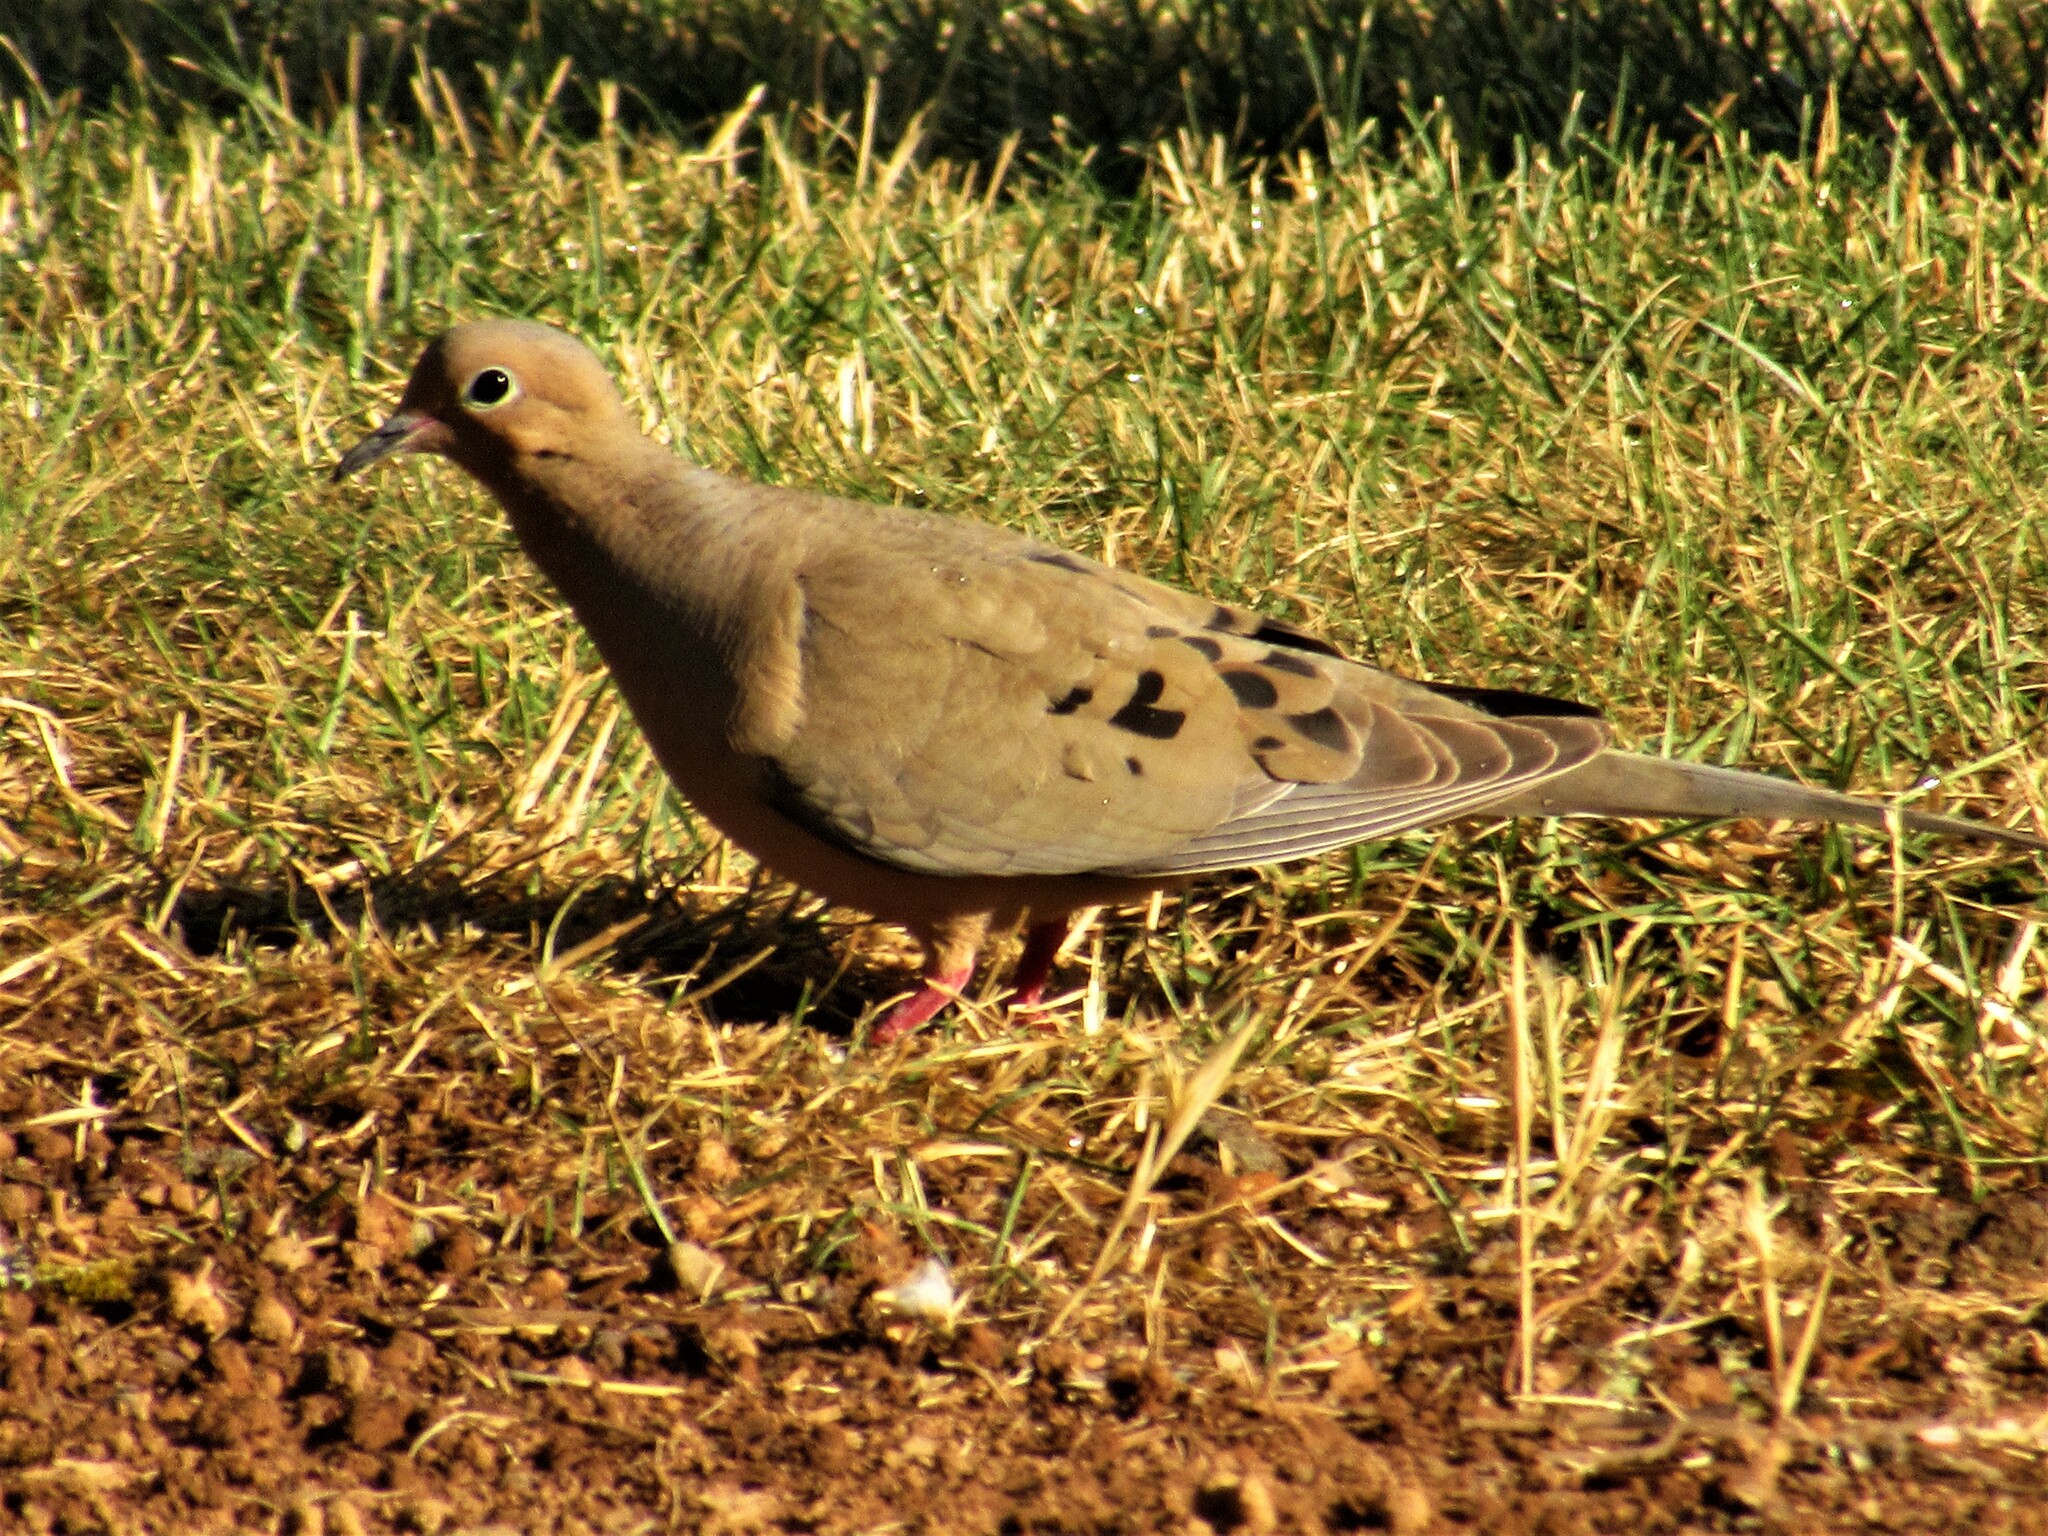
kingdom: Animalia
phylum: Chordata
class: Aves
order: Columbiformes
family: Columbidae
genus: Zenaida
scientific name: Zenaida macroura
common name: Mourning dove
